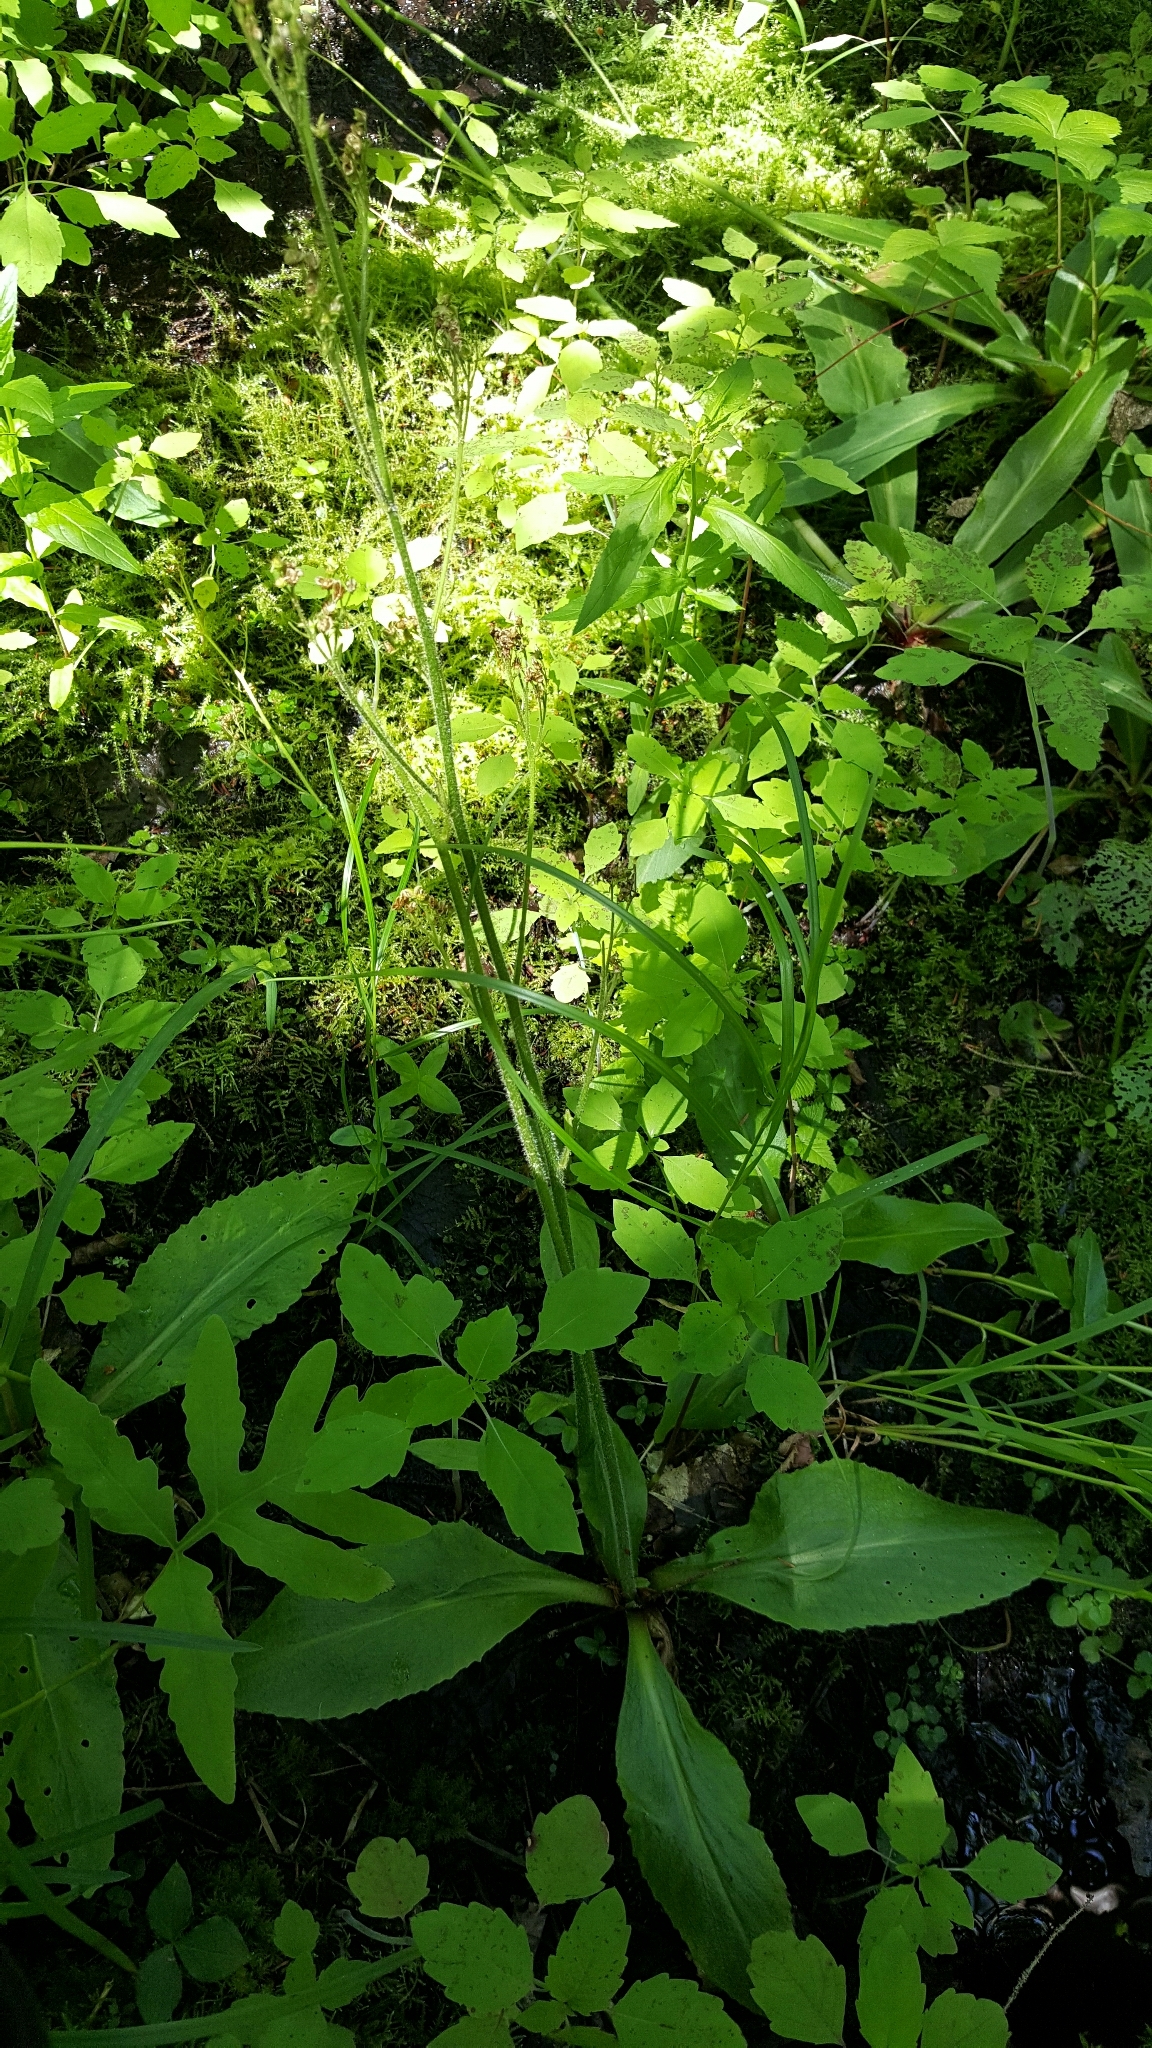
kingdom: Plantae
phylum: Tracheophyta
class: Magnoliopsida
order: Saxifragales
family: Saxifragaceae
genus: Micranthes
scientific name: Micranthes pensylvanica
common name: Marsh saxifrage
